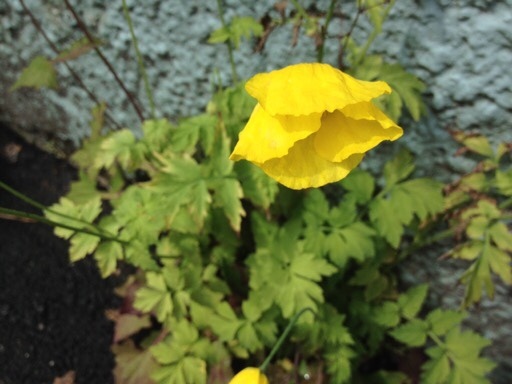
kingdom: Plantae
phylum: Tracheophyta
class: Magnoliopsida
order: Ranunculales
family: Papaveraceae
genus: Papaver
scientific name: Papaver cambricum
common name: Poppy
